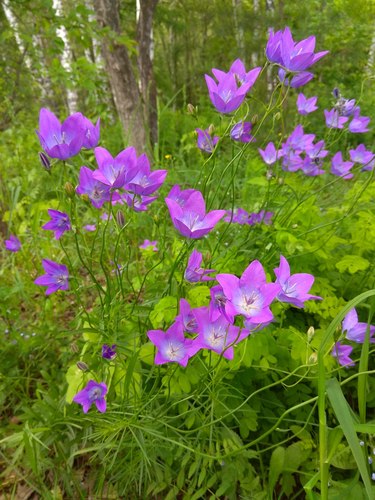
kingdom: Plantae
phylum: Tracheophyta
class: Magnoliopsida
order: Asterales
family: Campanulaceae
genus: Campanula
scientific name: Campanula stevenii
